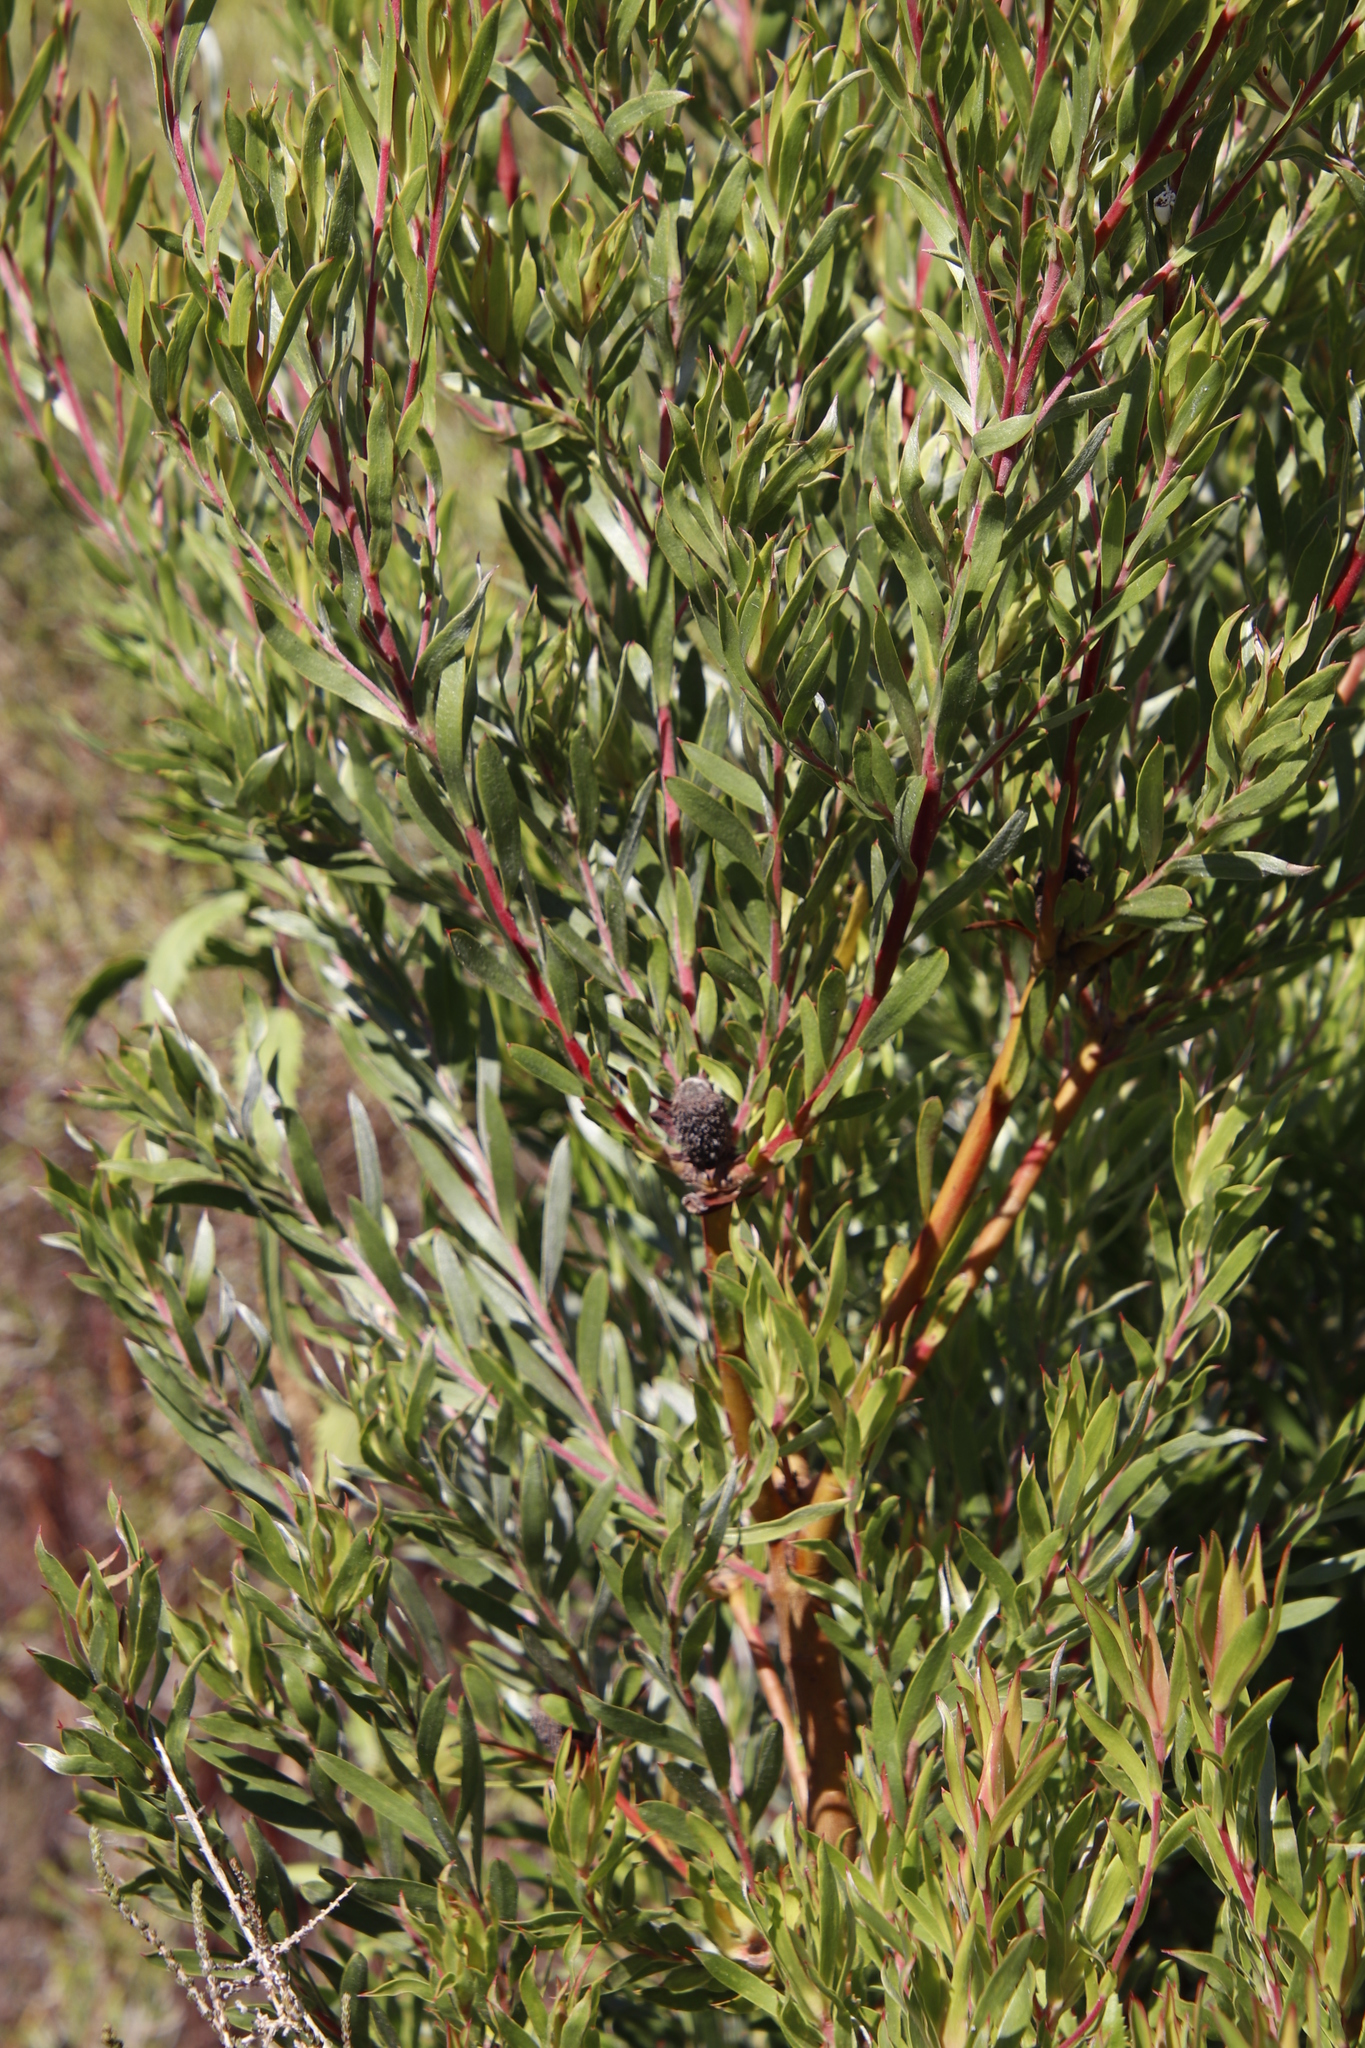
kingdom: Plantae
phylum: Tracheophyta
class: Magnoliopsida
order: Proteales
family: Proteaceae
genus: Leucadendron
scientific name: Leucadendron floridum
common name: Flats conebush
